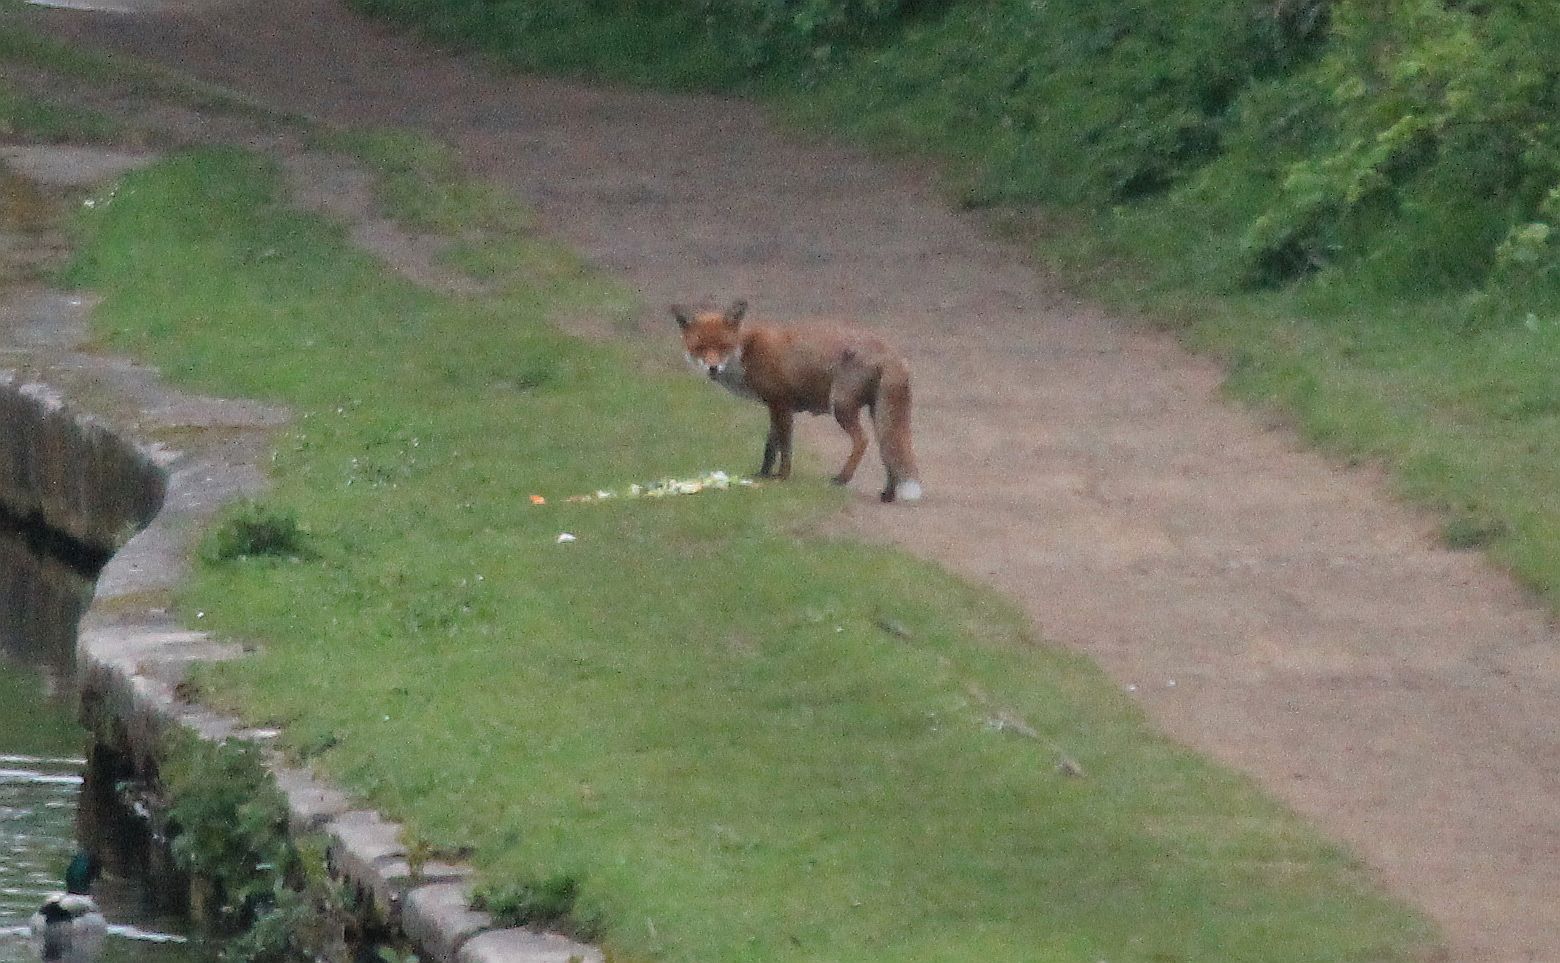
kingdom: Animalia
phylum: Chordata
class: Mammalia
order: Carnivora
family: Canidae
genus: Vulpes
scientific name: Vulpes vulpes
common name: Red fox
